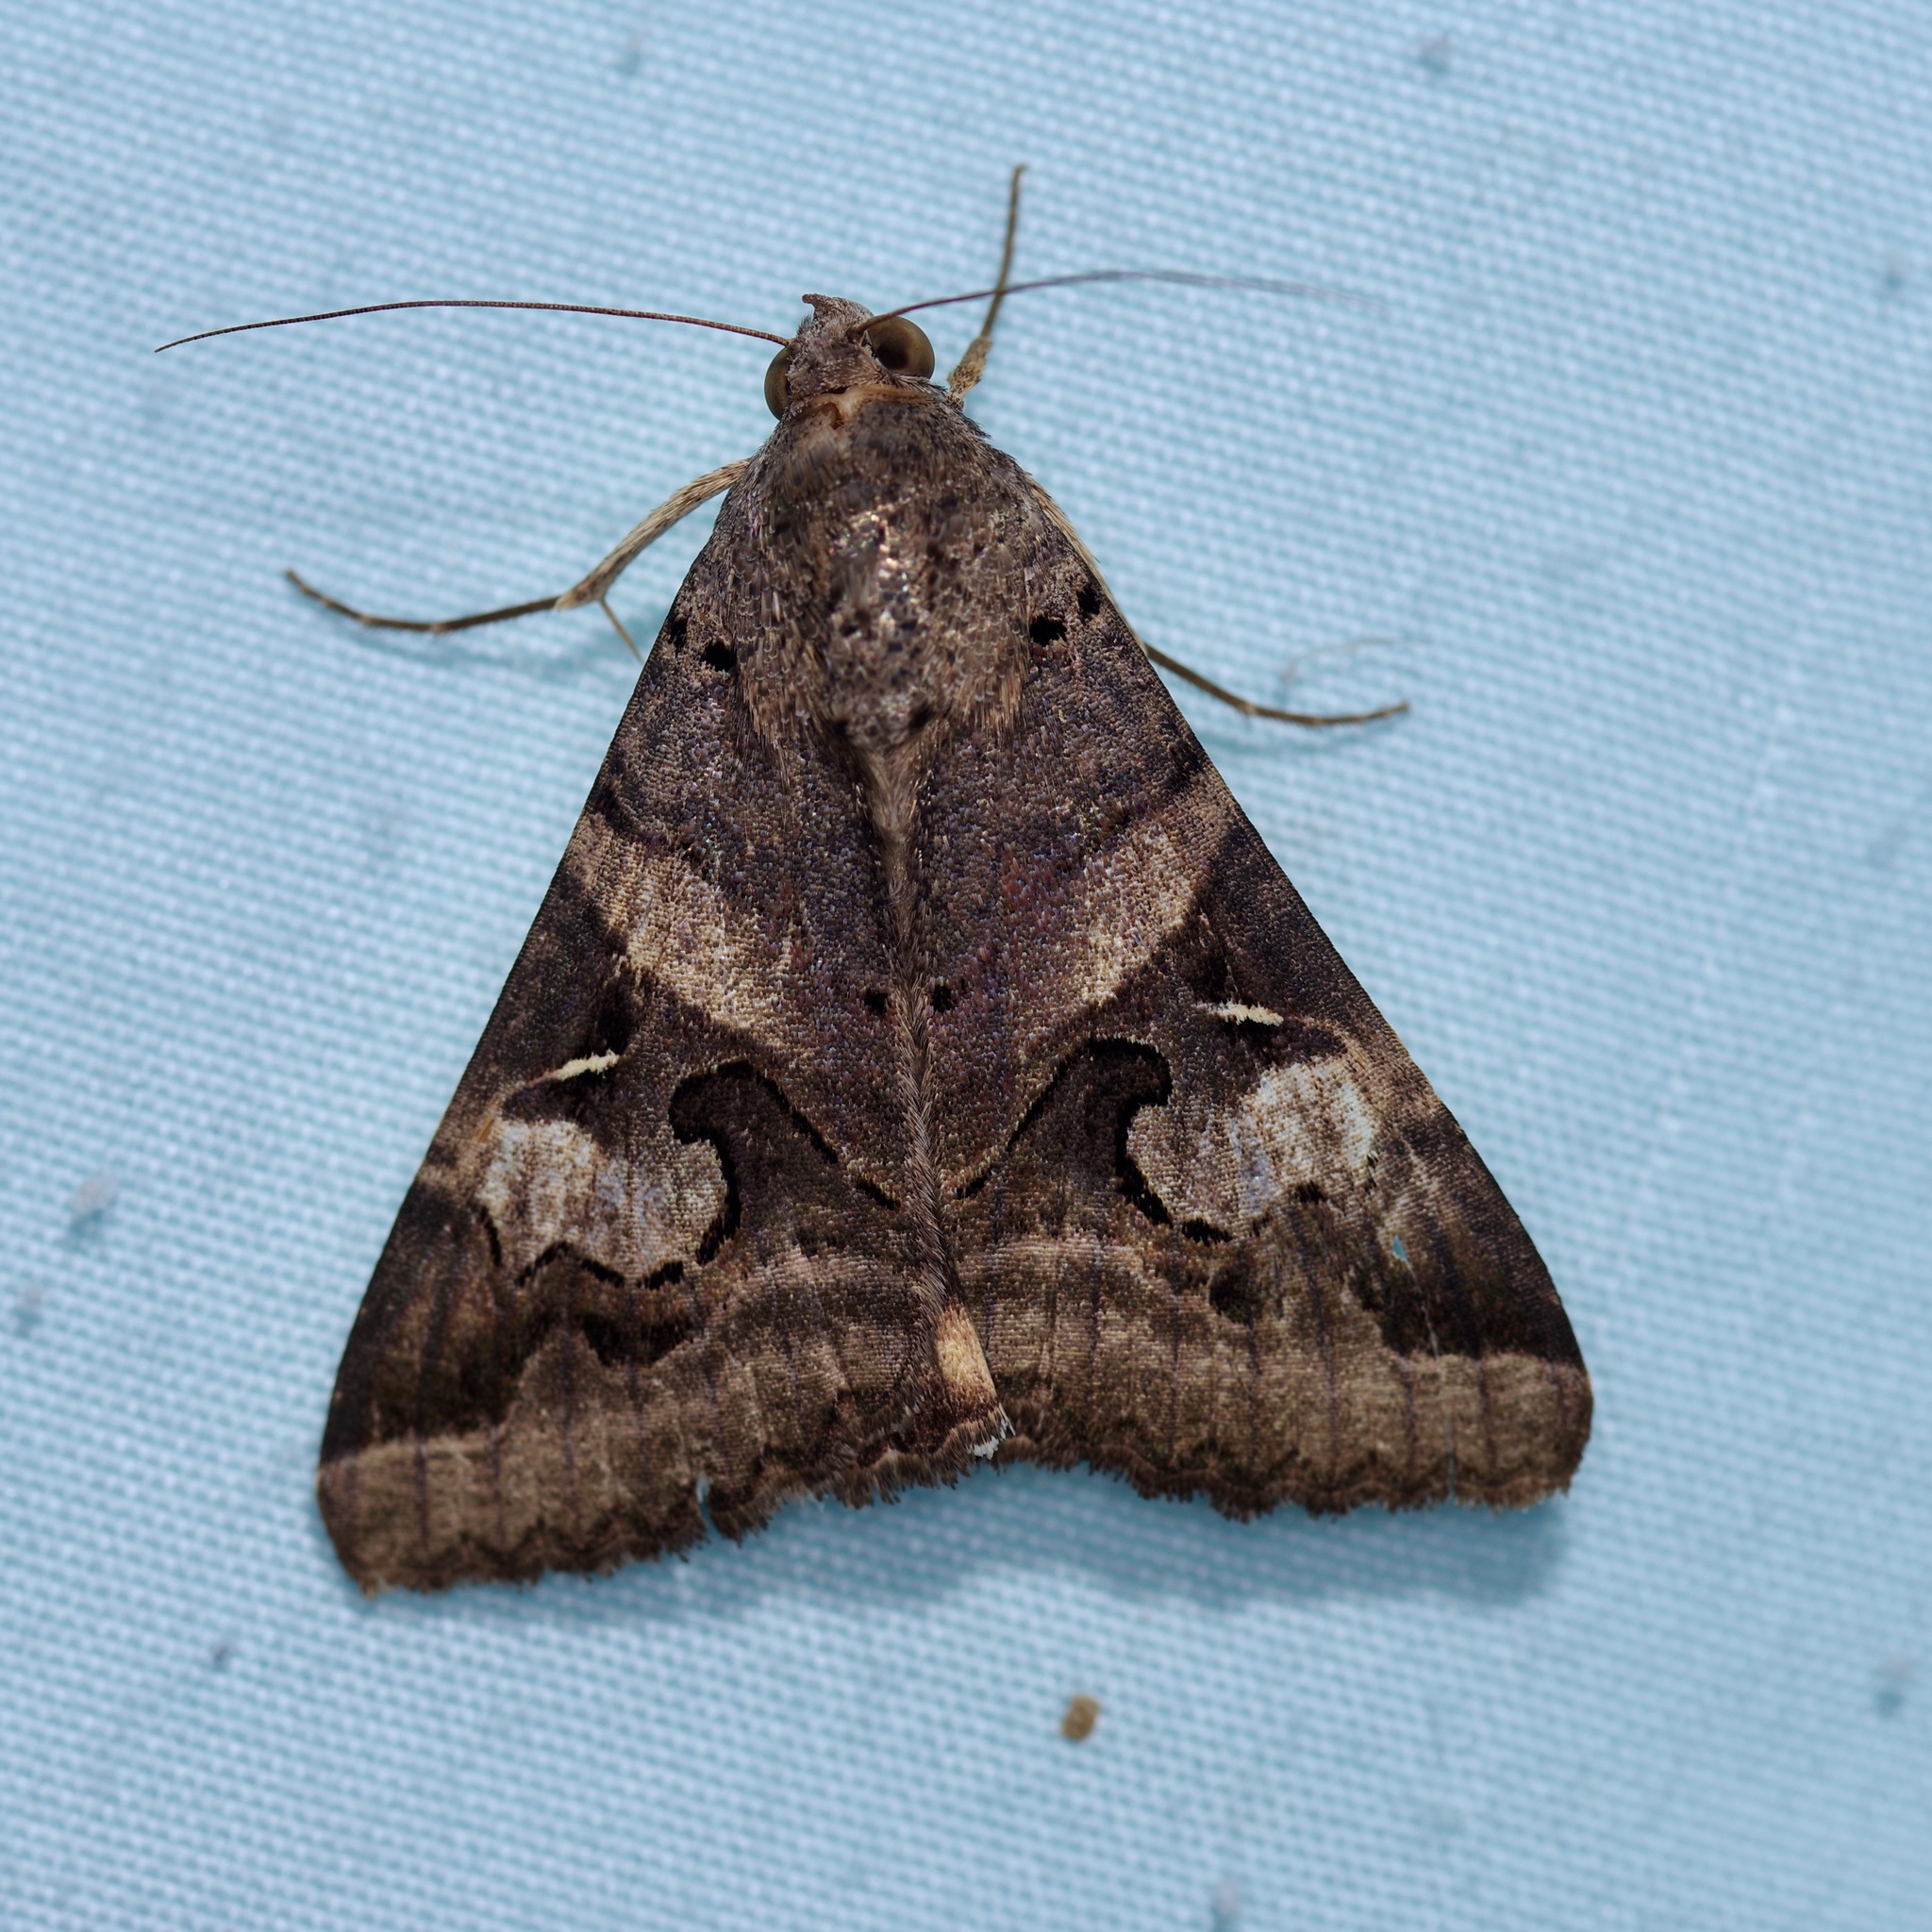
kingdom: Animalia
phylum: Arthropoda
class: Insecta
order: Lepidoptera
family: Erebidae
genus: Melipotis
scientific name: Melipotis indomita
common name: Moth
